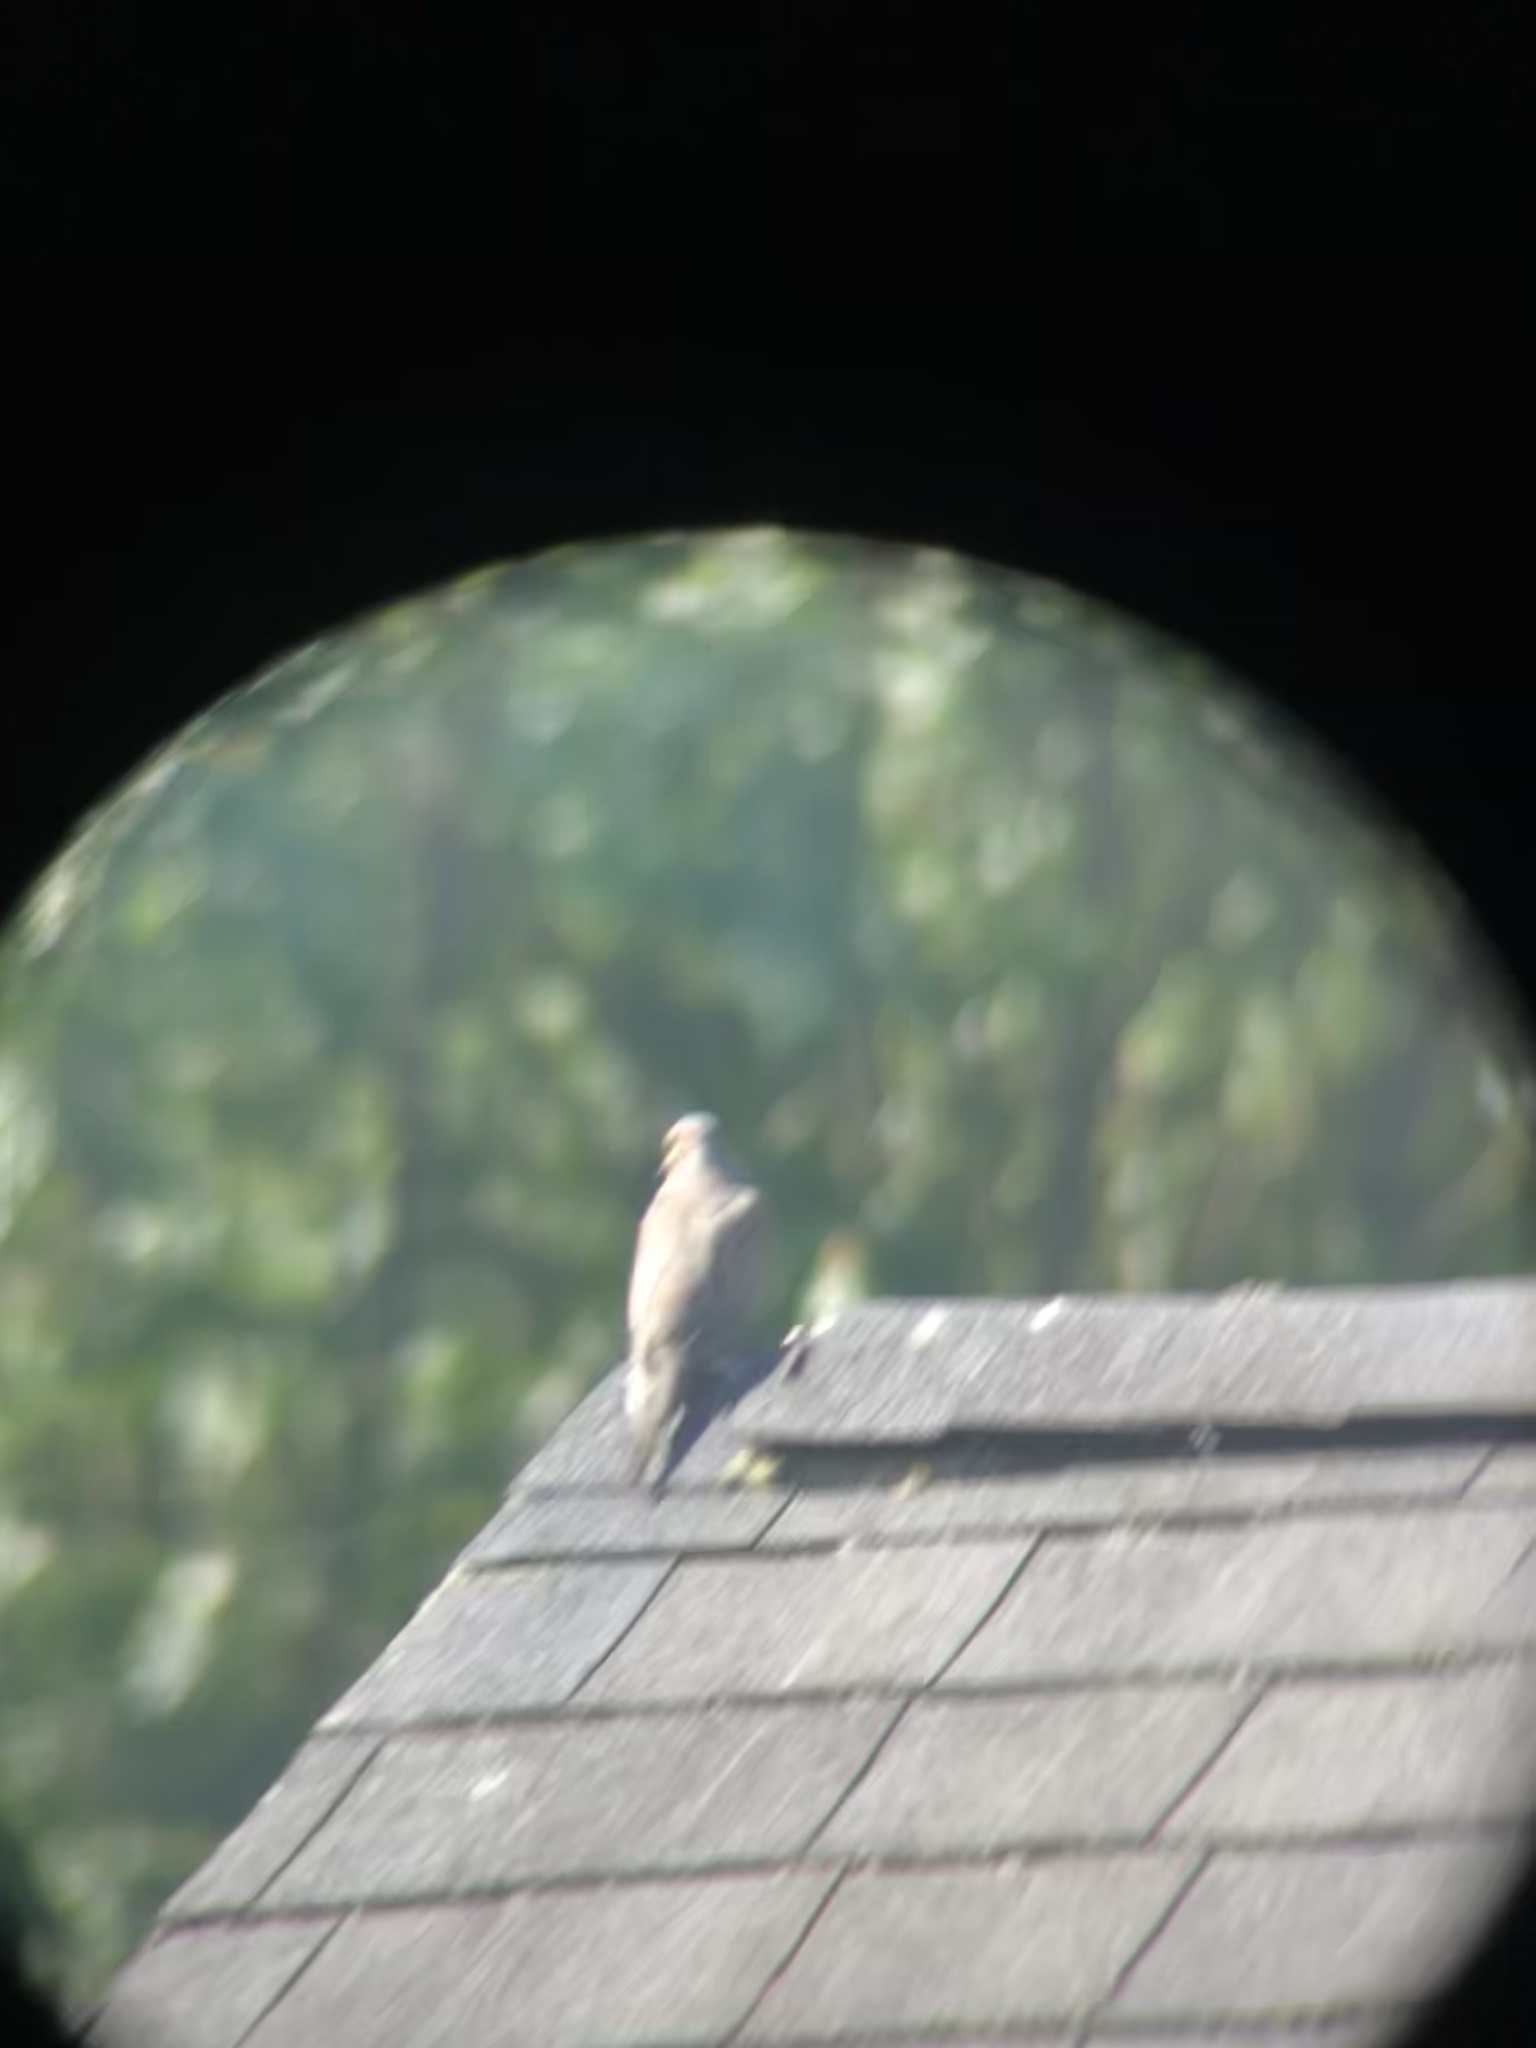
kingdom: Animalia
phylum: Chordata
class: Aves
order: Columbiformes
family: Columbidae
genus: Zenaida
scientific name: Zenaida macroura
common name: Mourning dove
